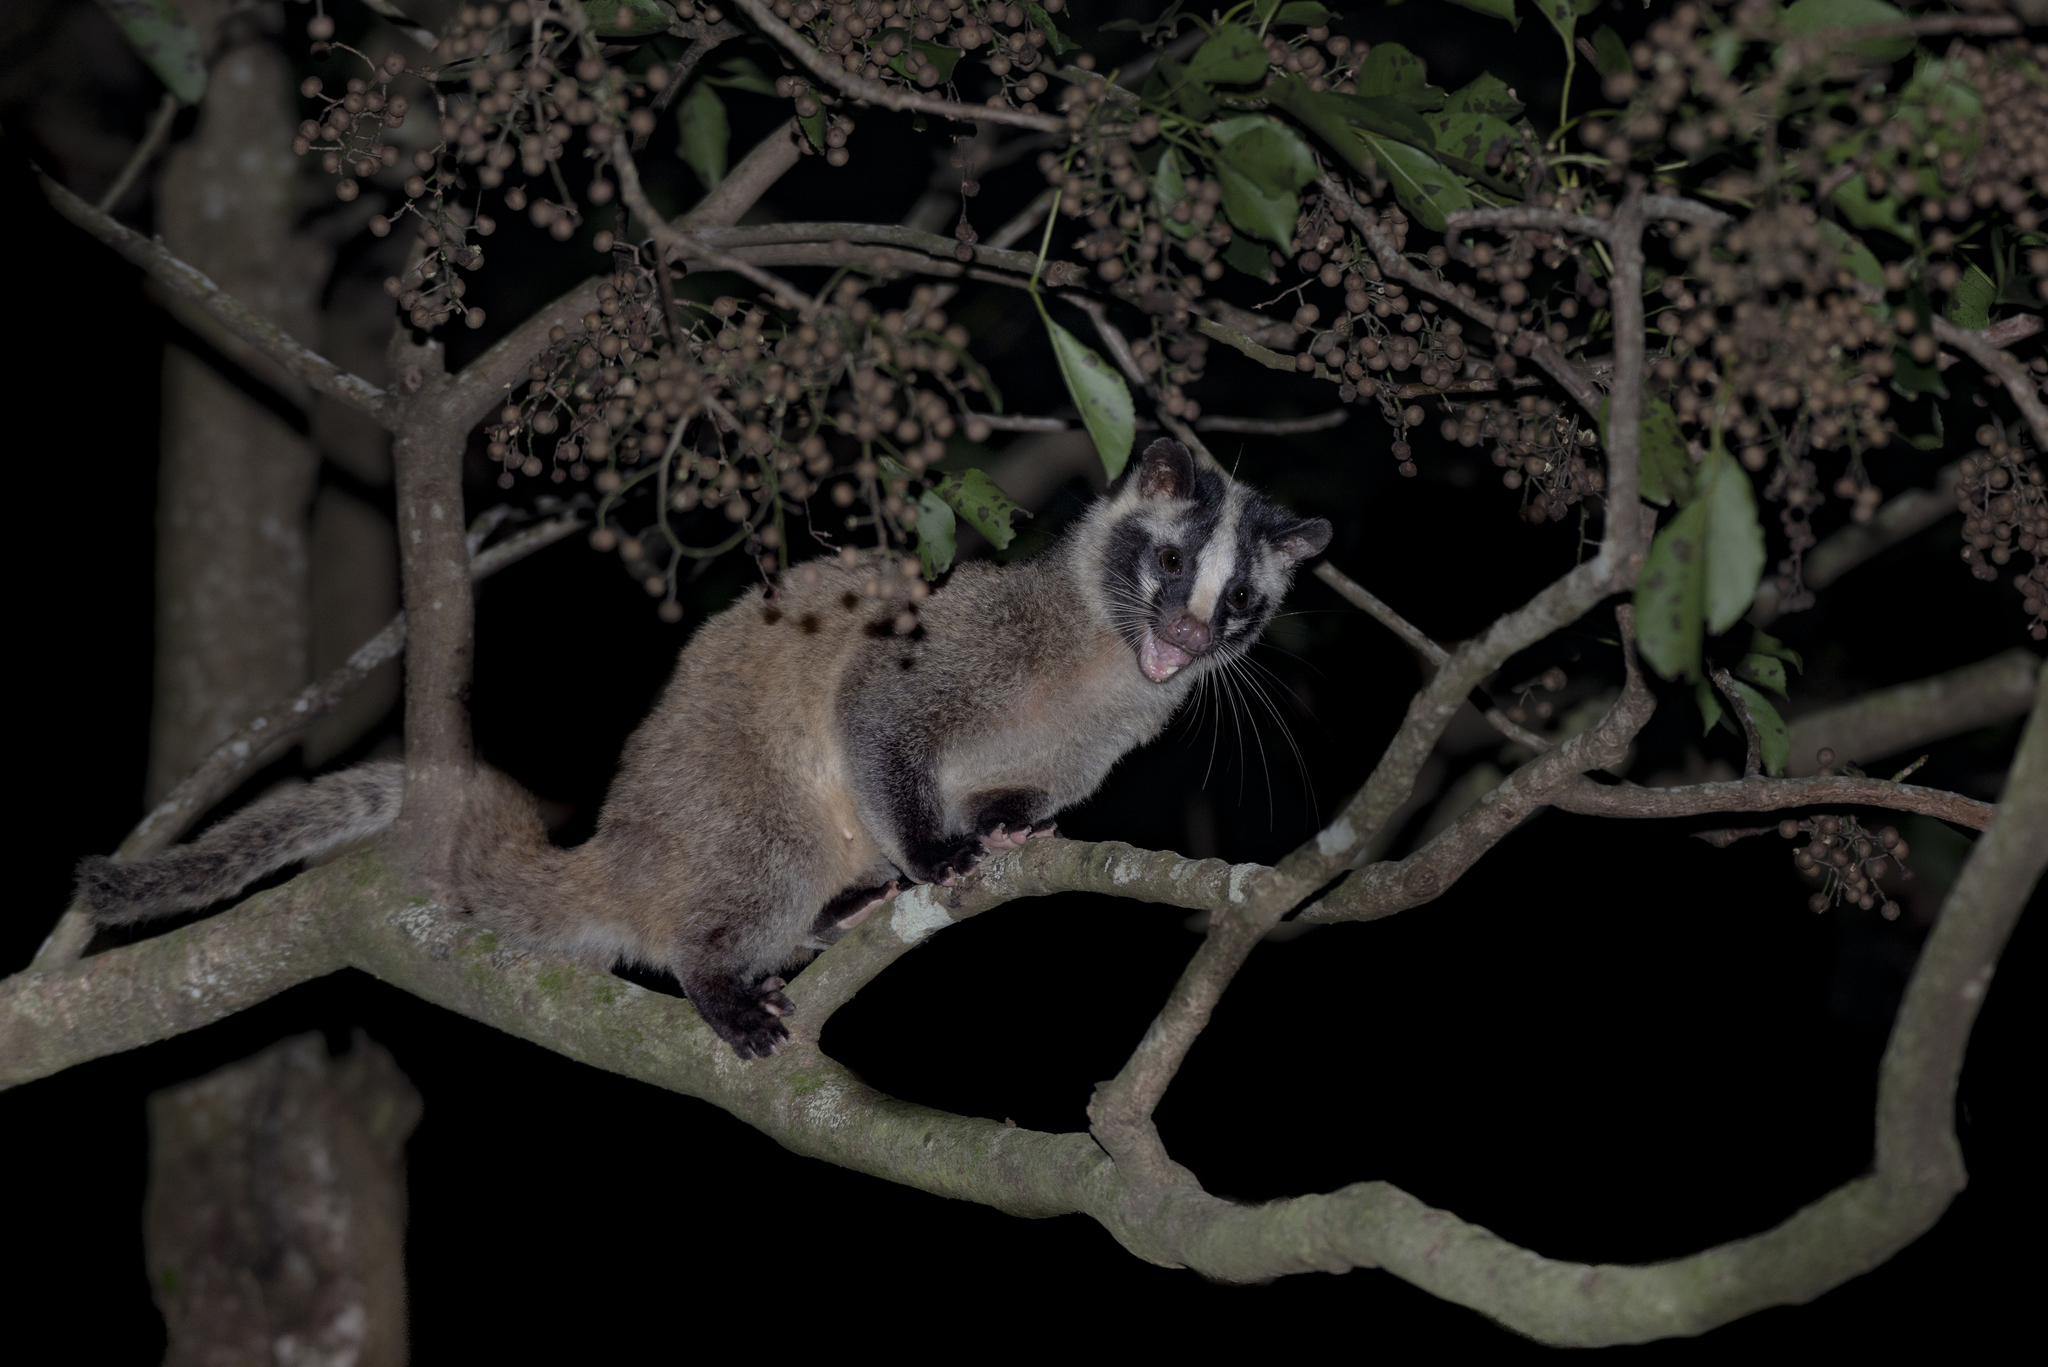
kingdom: Animalia
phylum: Chordata
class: Mammalia
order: Carnivora
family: Viverridae
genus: Paguma
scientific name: Paguma larvata
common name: Masked palm civet
